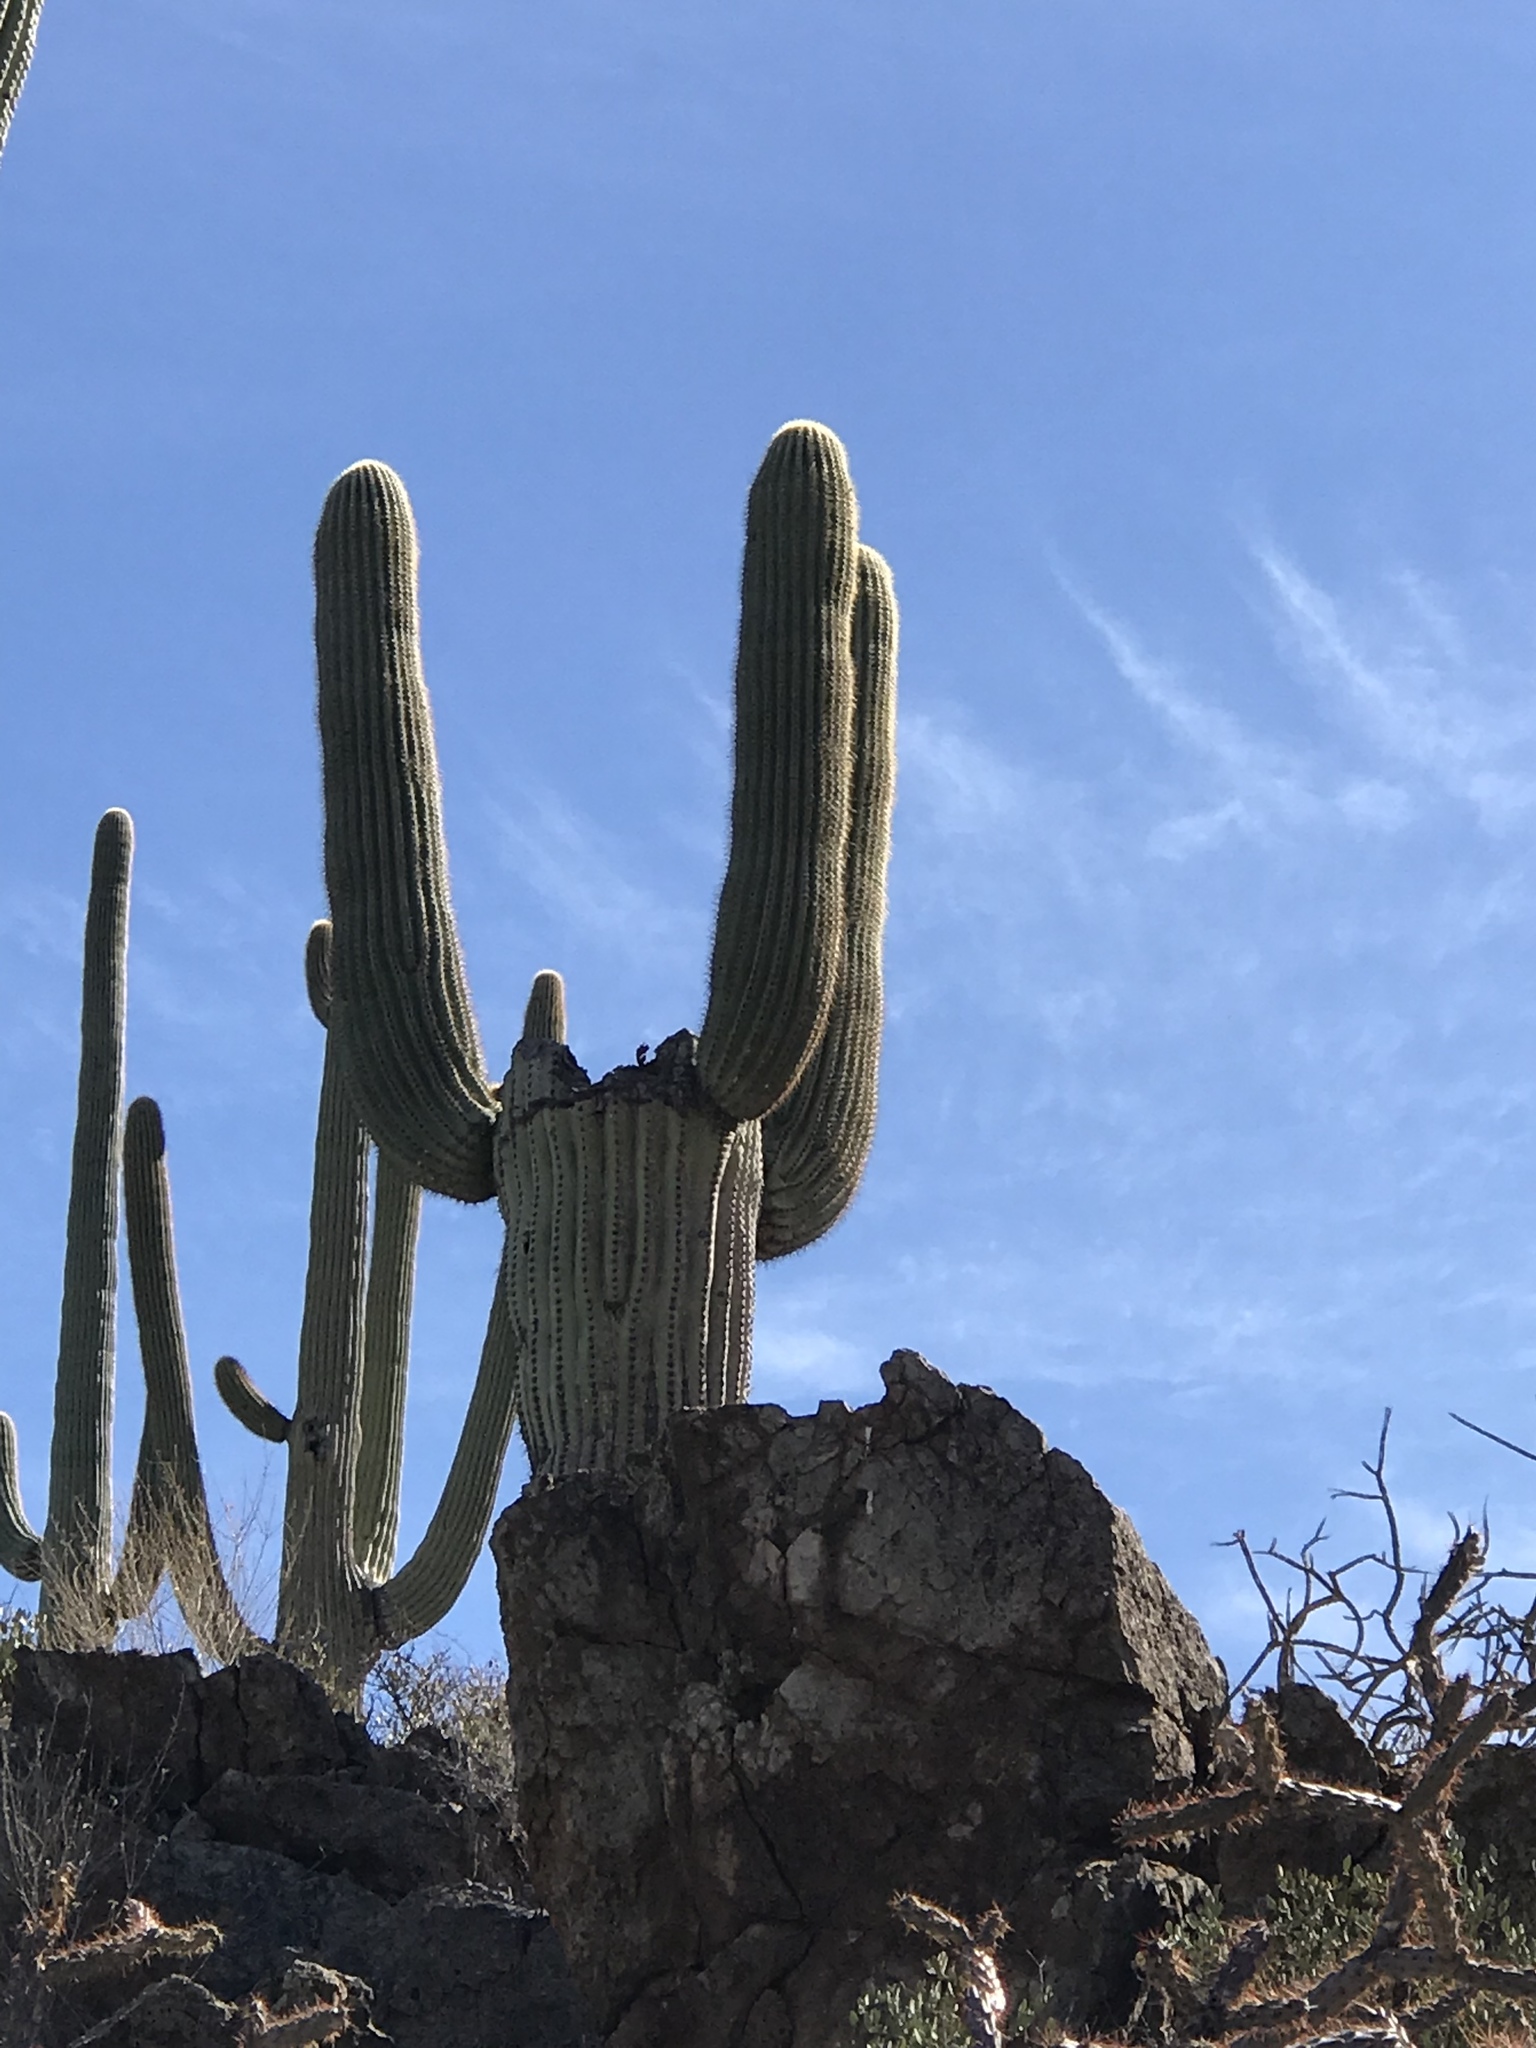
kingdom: Plantae
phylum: Tracheophyta
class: Magnoliopsida
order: Caryophyllales
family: Cactaceae
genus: Carnegiea
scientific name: Carnegiea gigantea
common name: Saguaro
